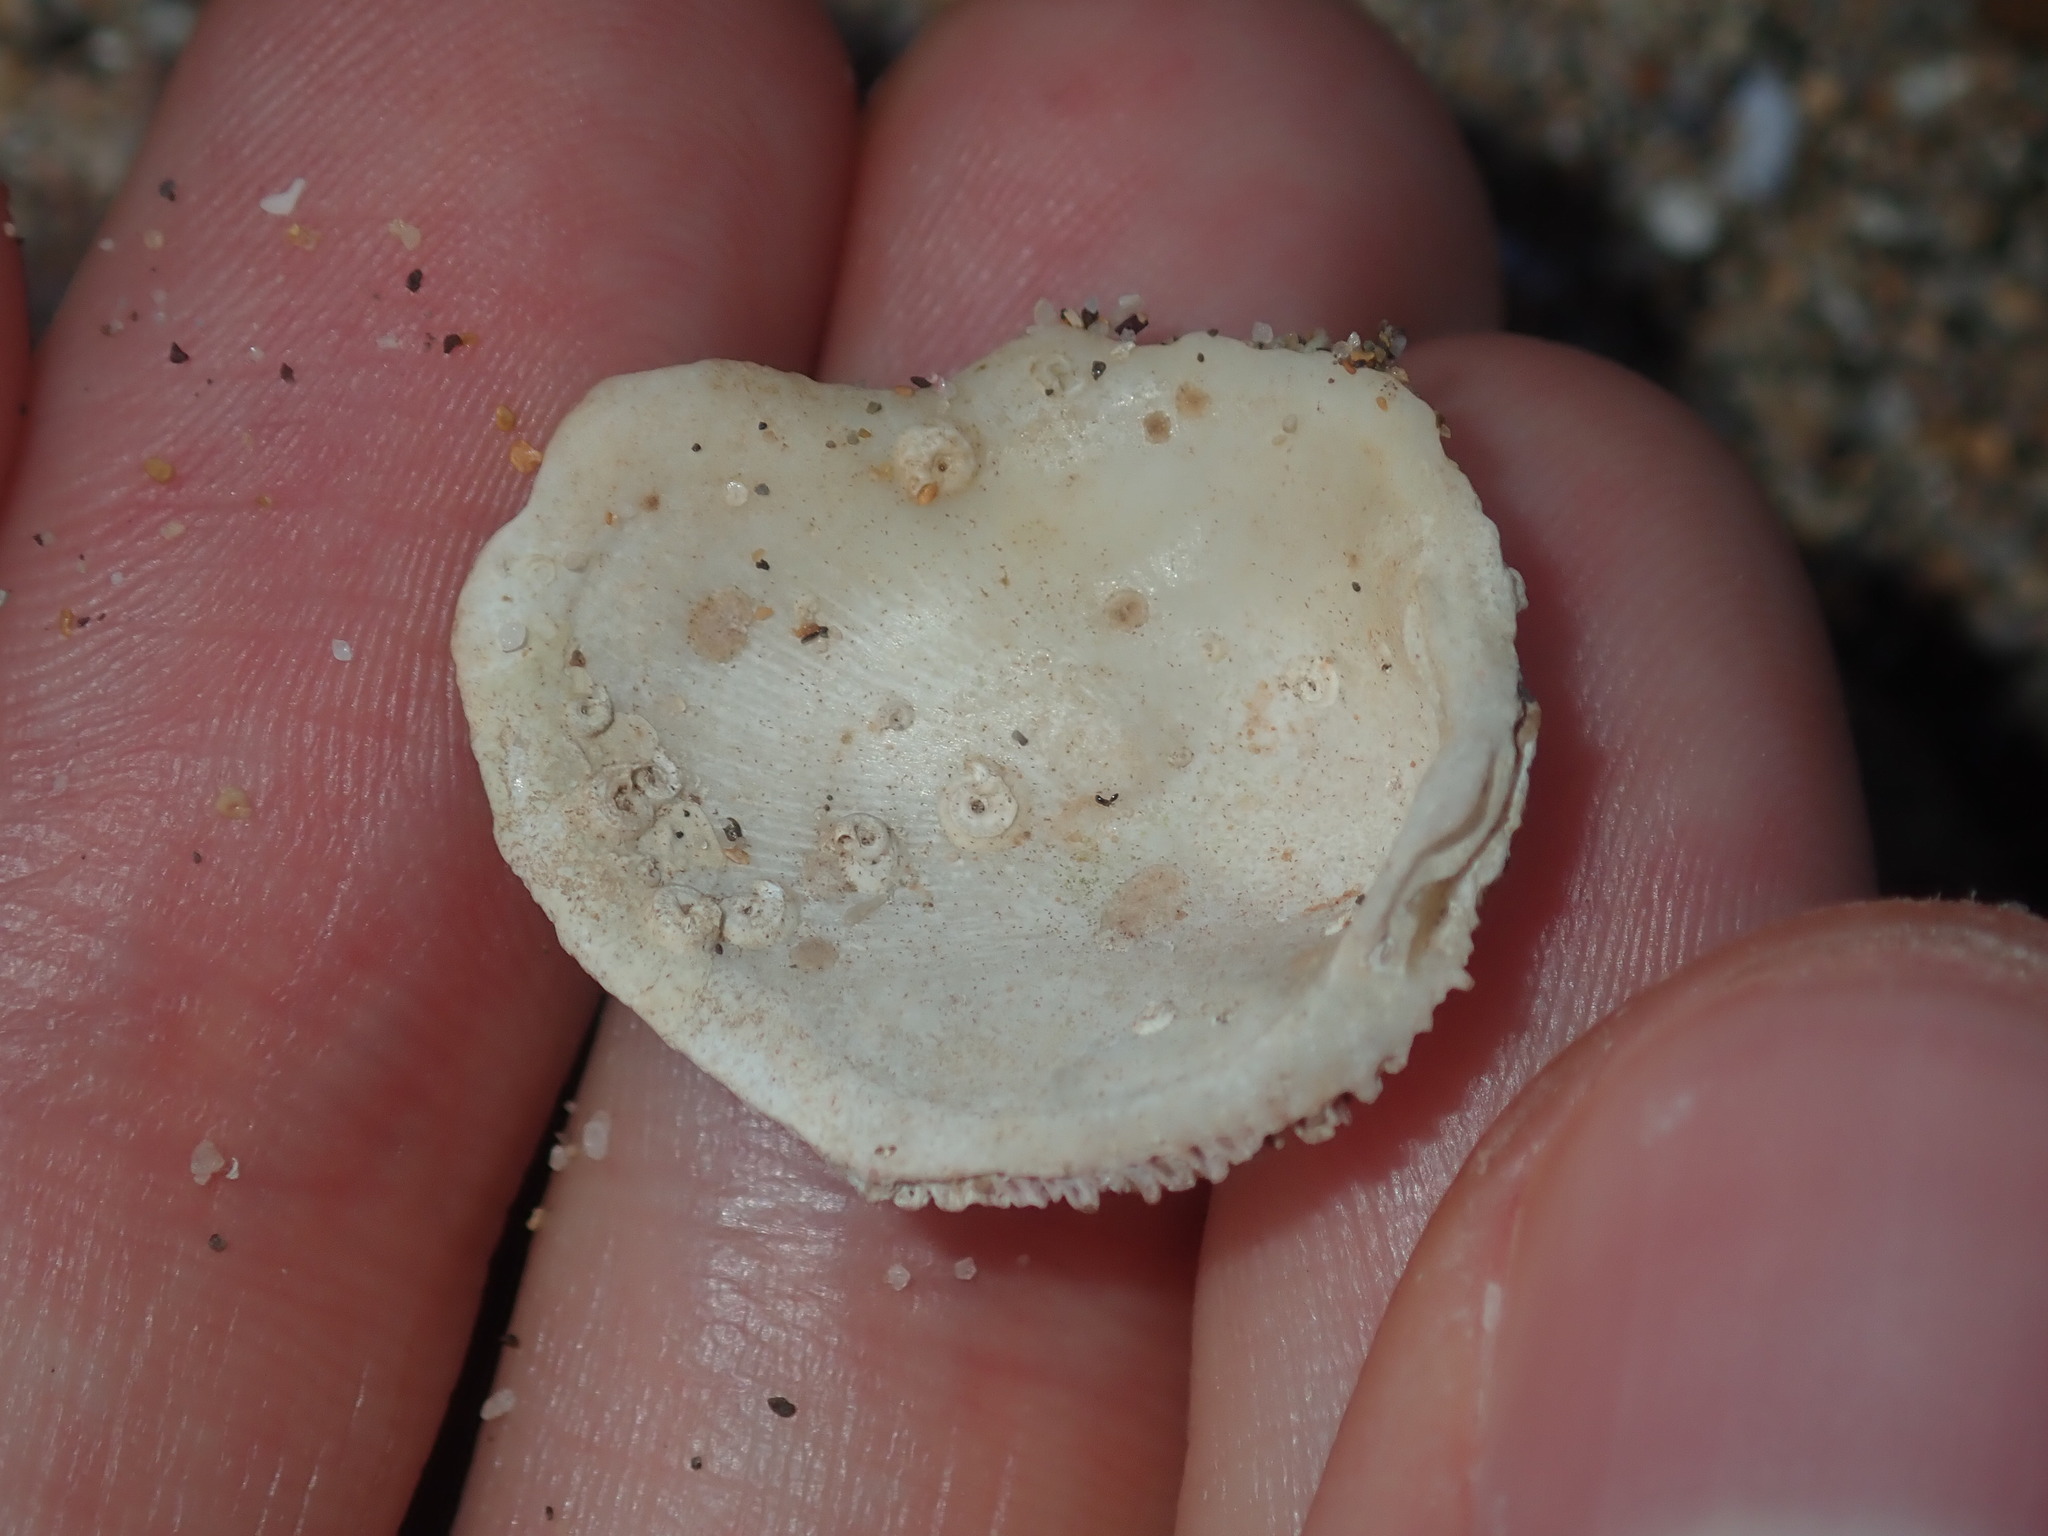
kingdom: Animalia
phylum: Mollusca
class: Bivalvia
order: Venerida
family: Chamidae
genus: Chama
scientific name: Chama asperella
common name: Mollusca
